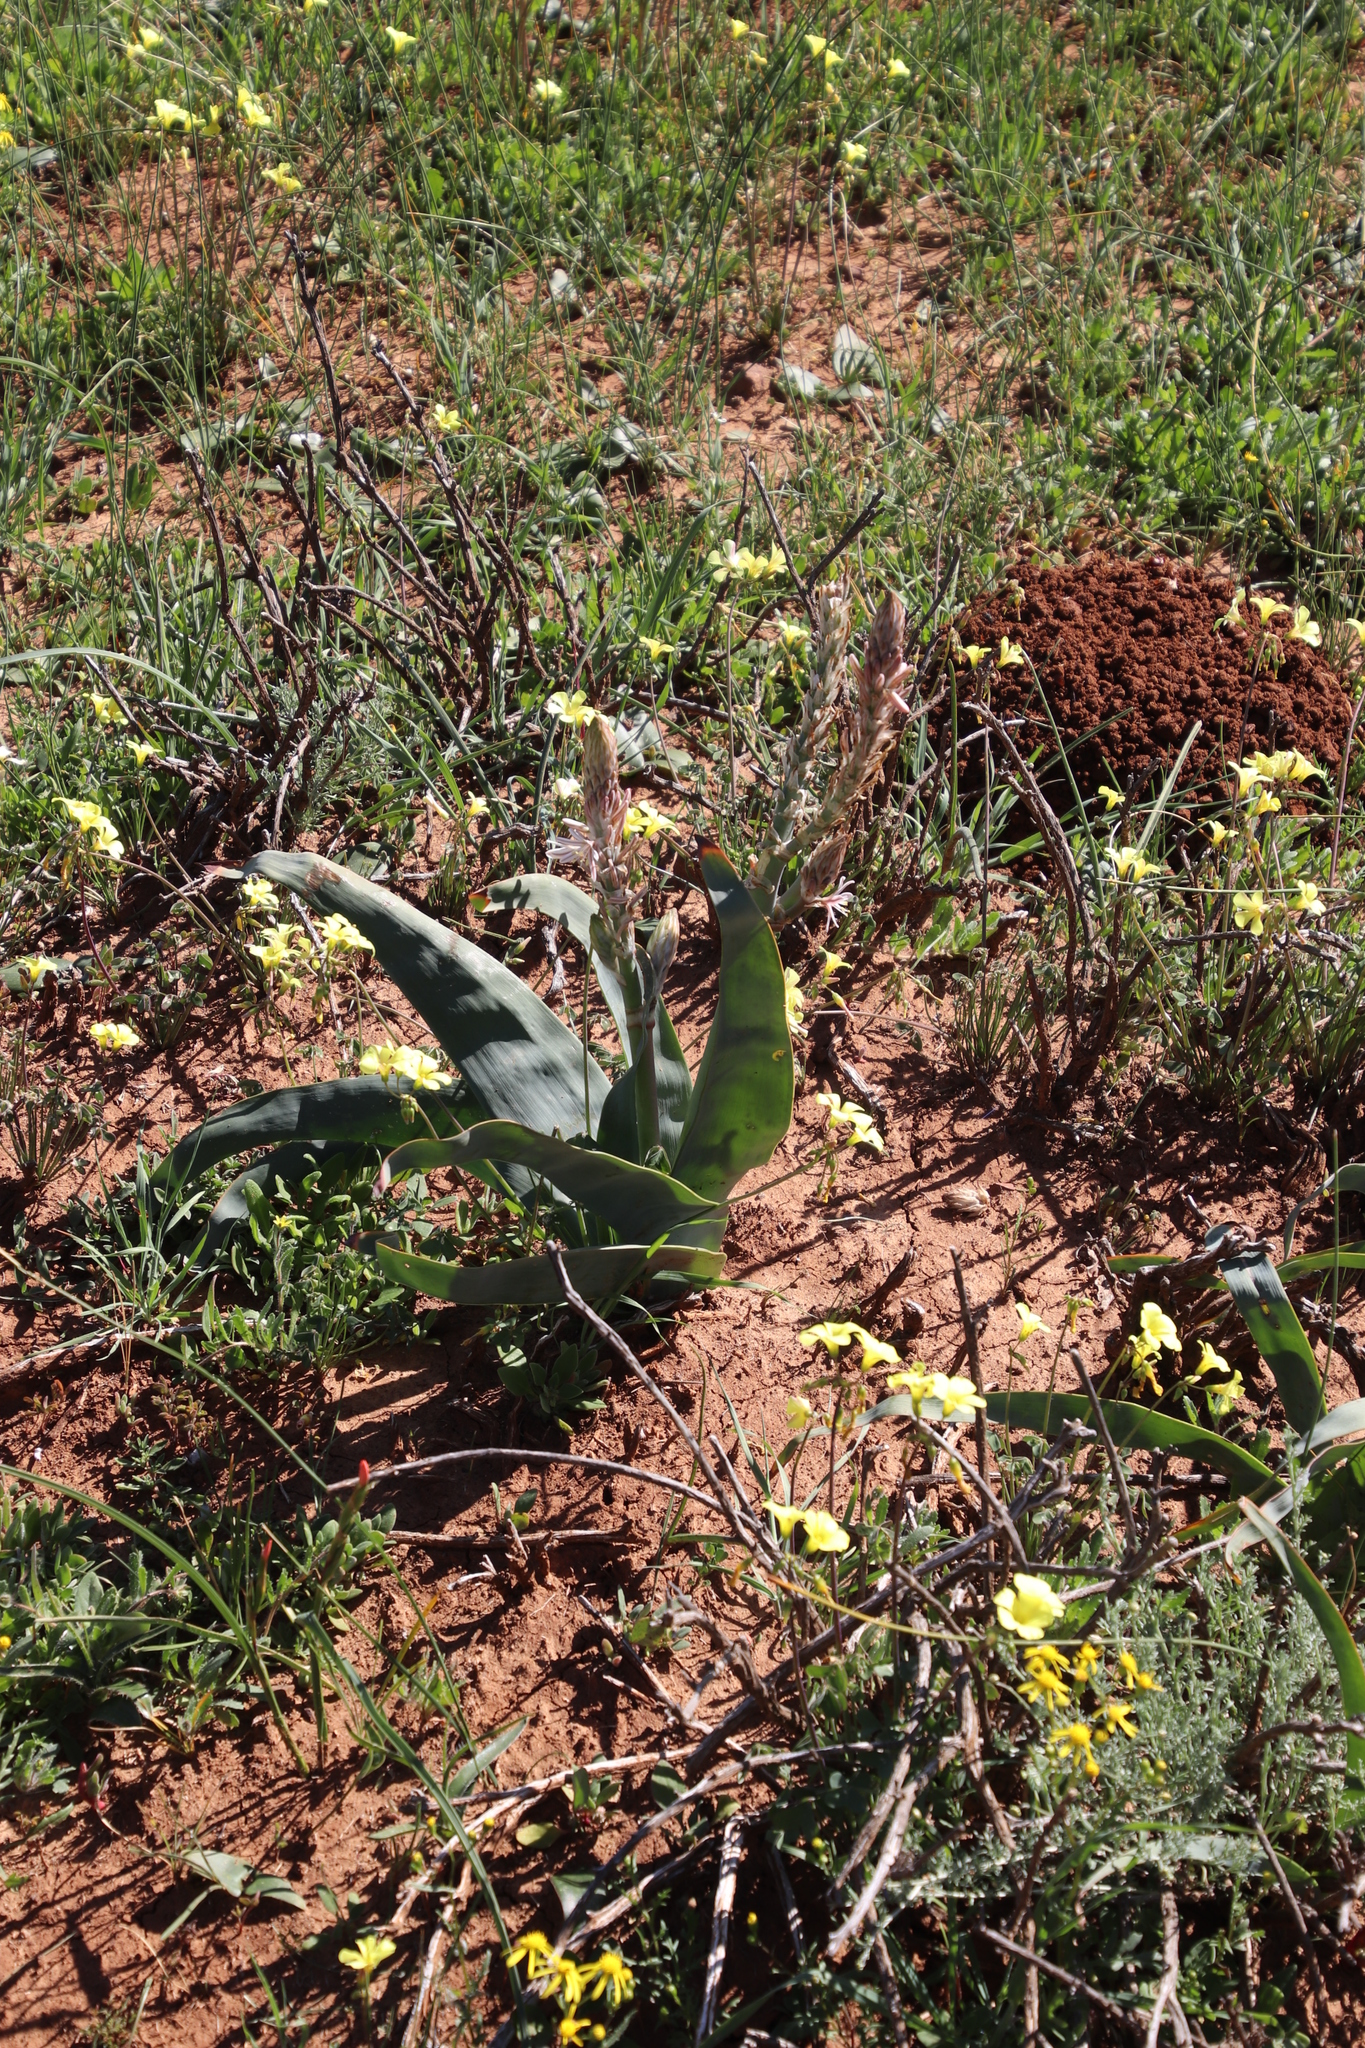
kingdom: Plantae
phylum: Tracheophyta
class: Liliopsida
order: Asparagales
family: Asphodelaceae
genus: Trachyandra
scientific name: Trachyandra falcata
